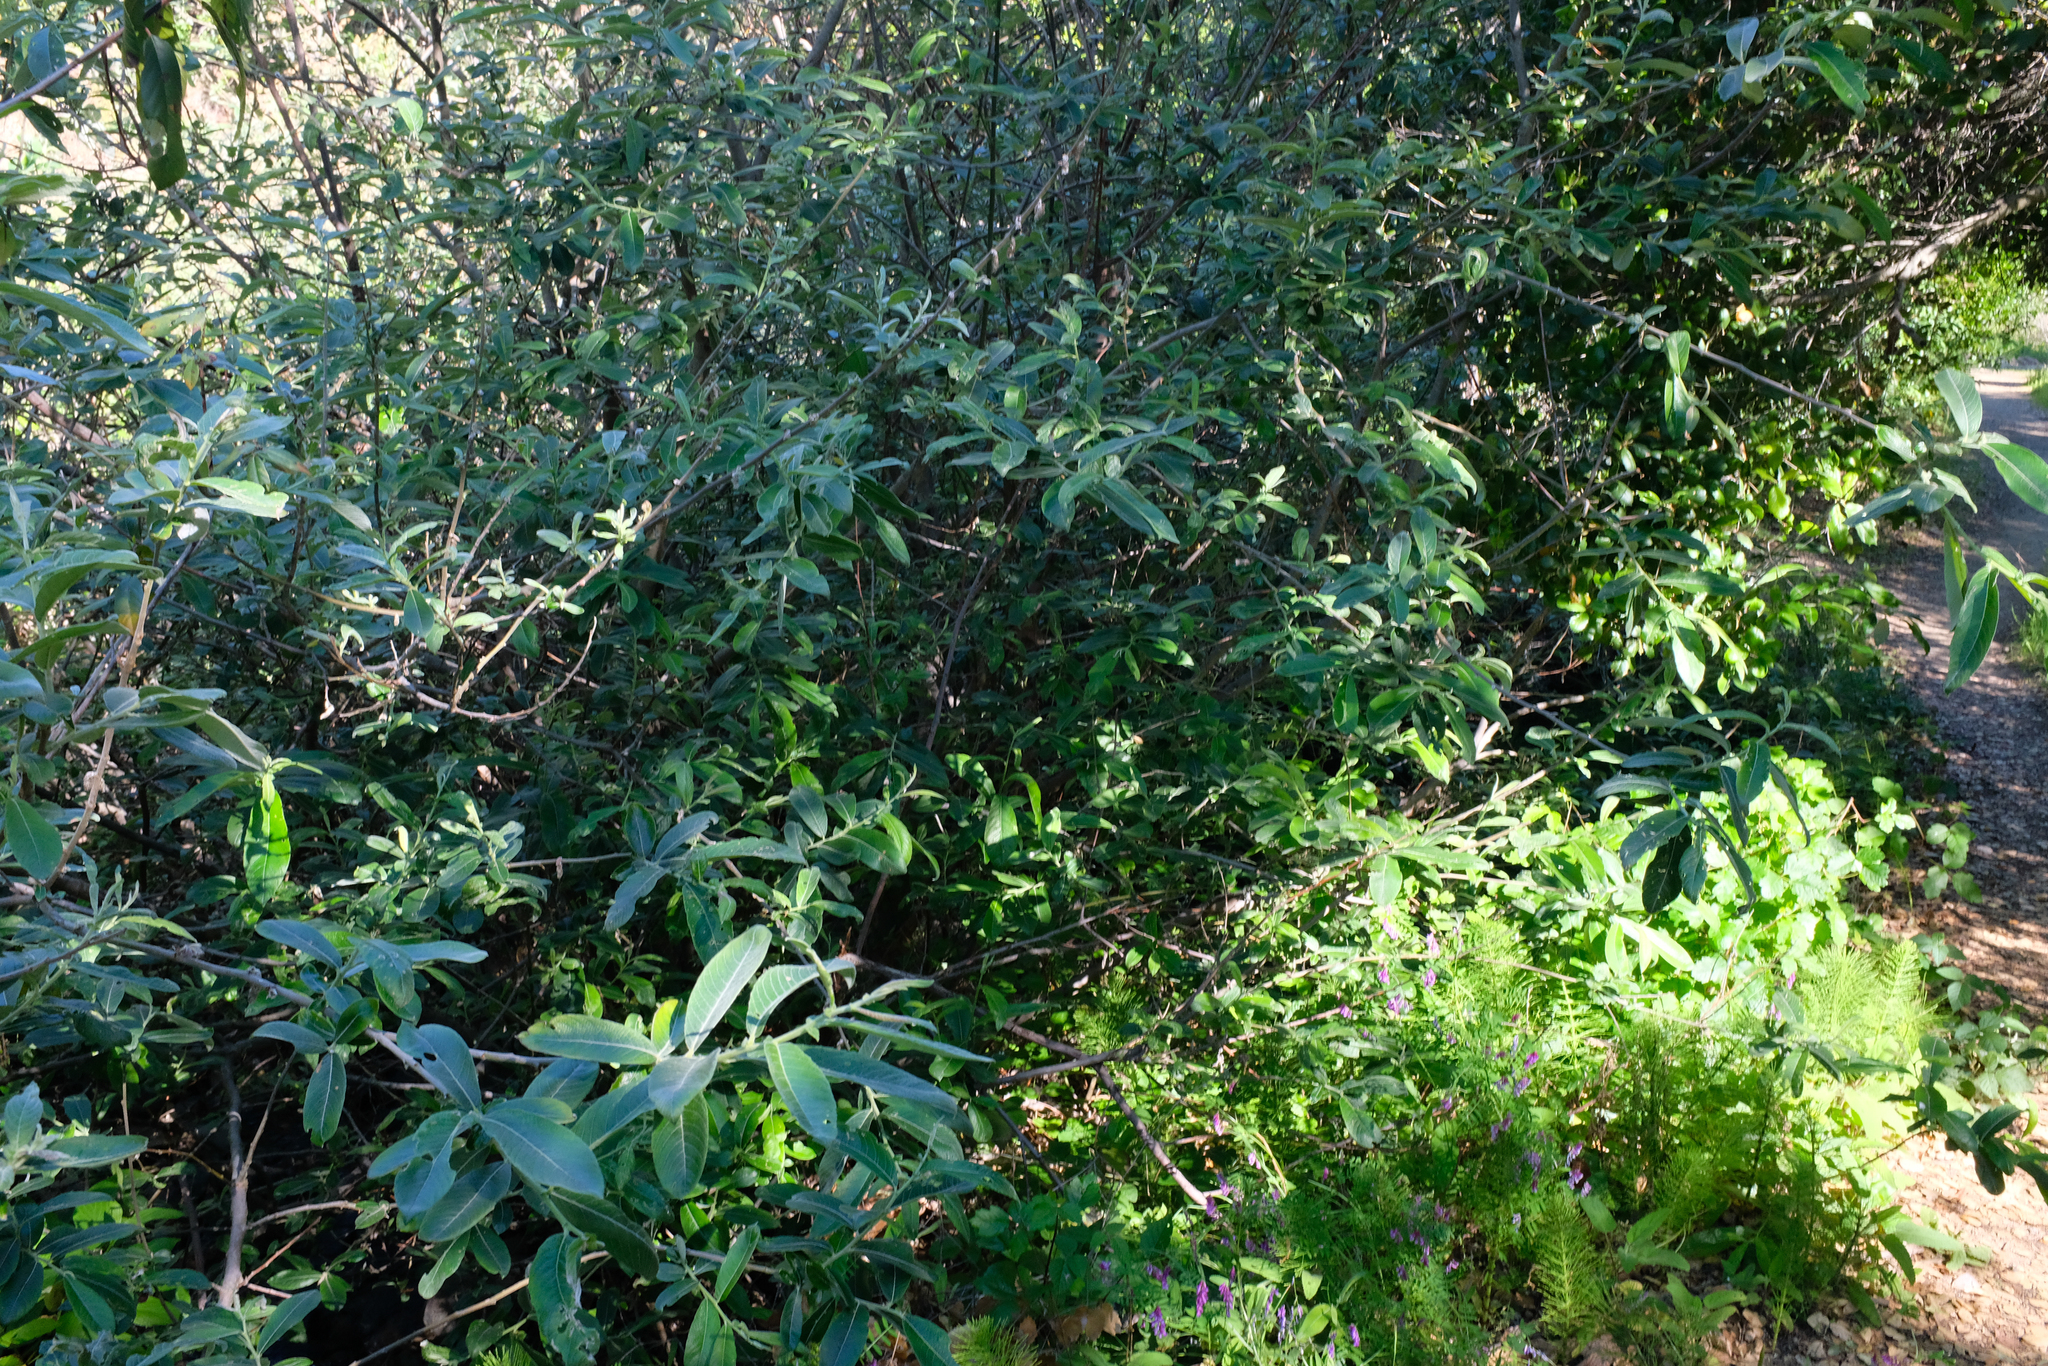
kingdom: Plantae
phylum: Tracheophyta
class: Magnoliopsida
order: Malpighiales
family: Salicaceae
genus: Salix
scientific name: Salix breweri
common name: Brewer’s willow
